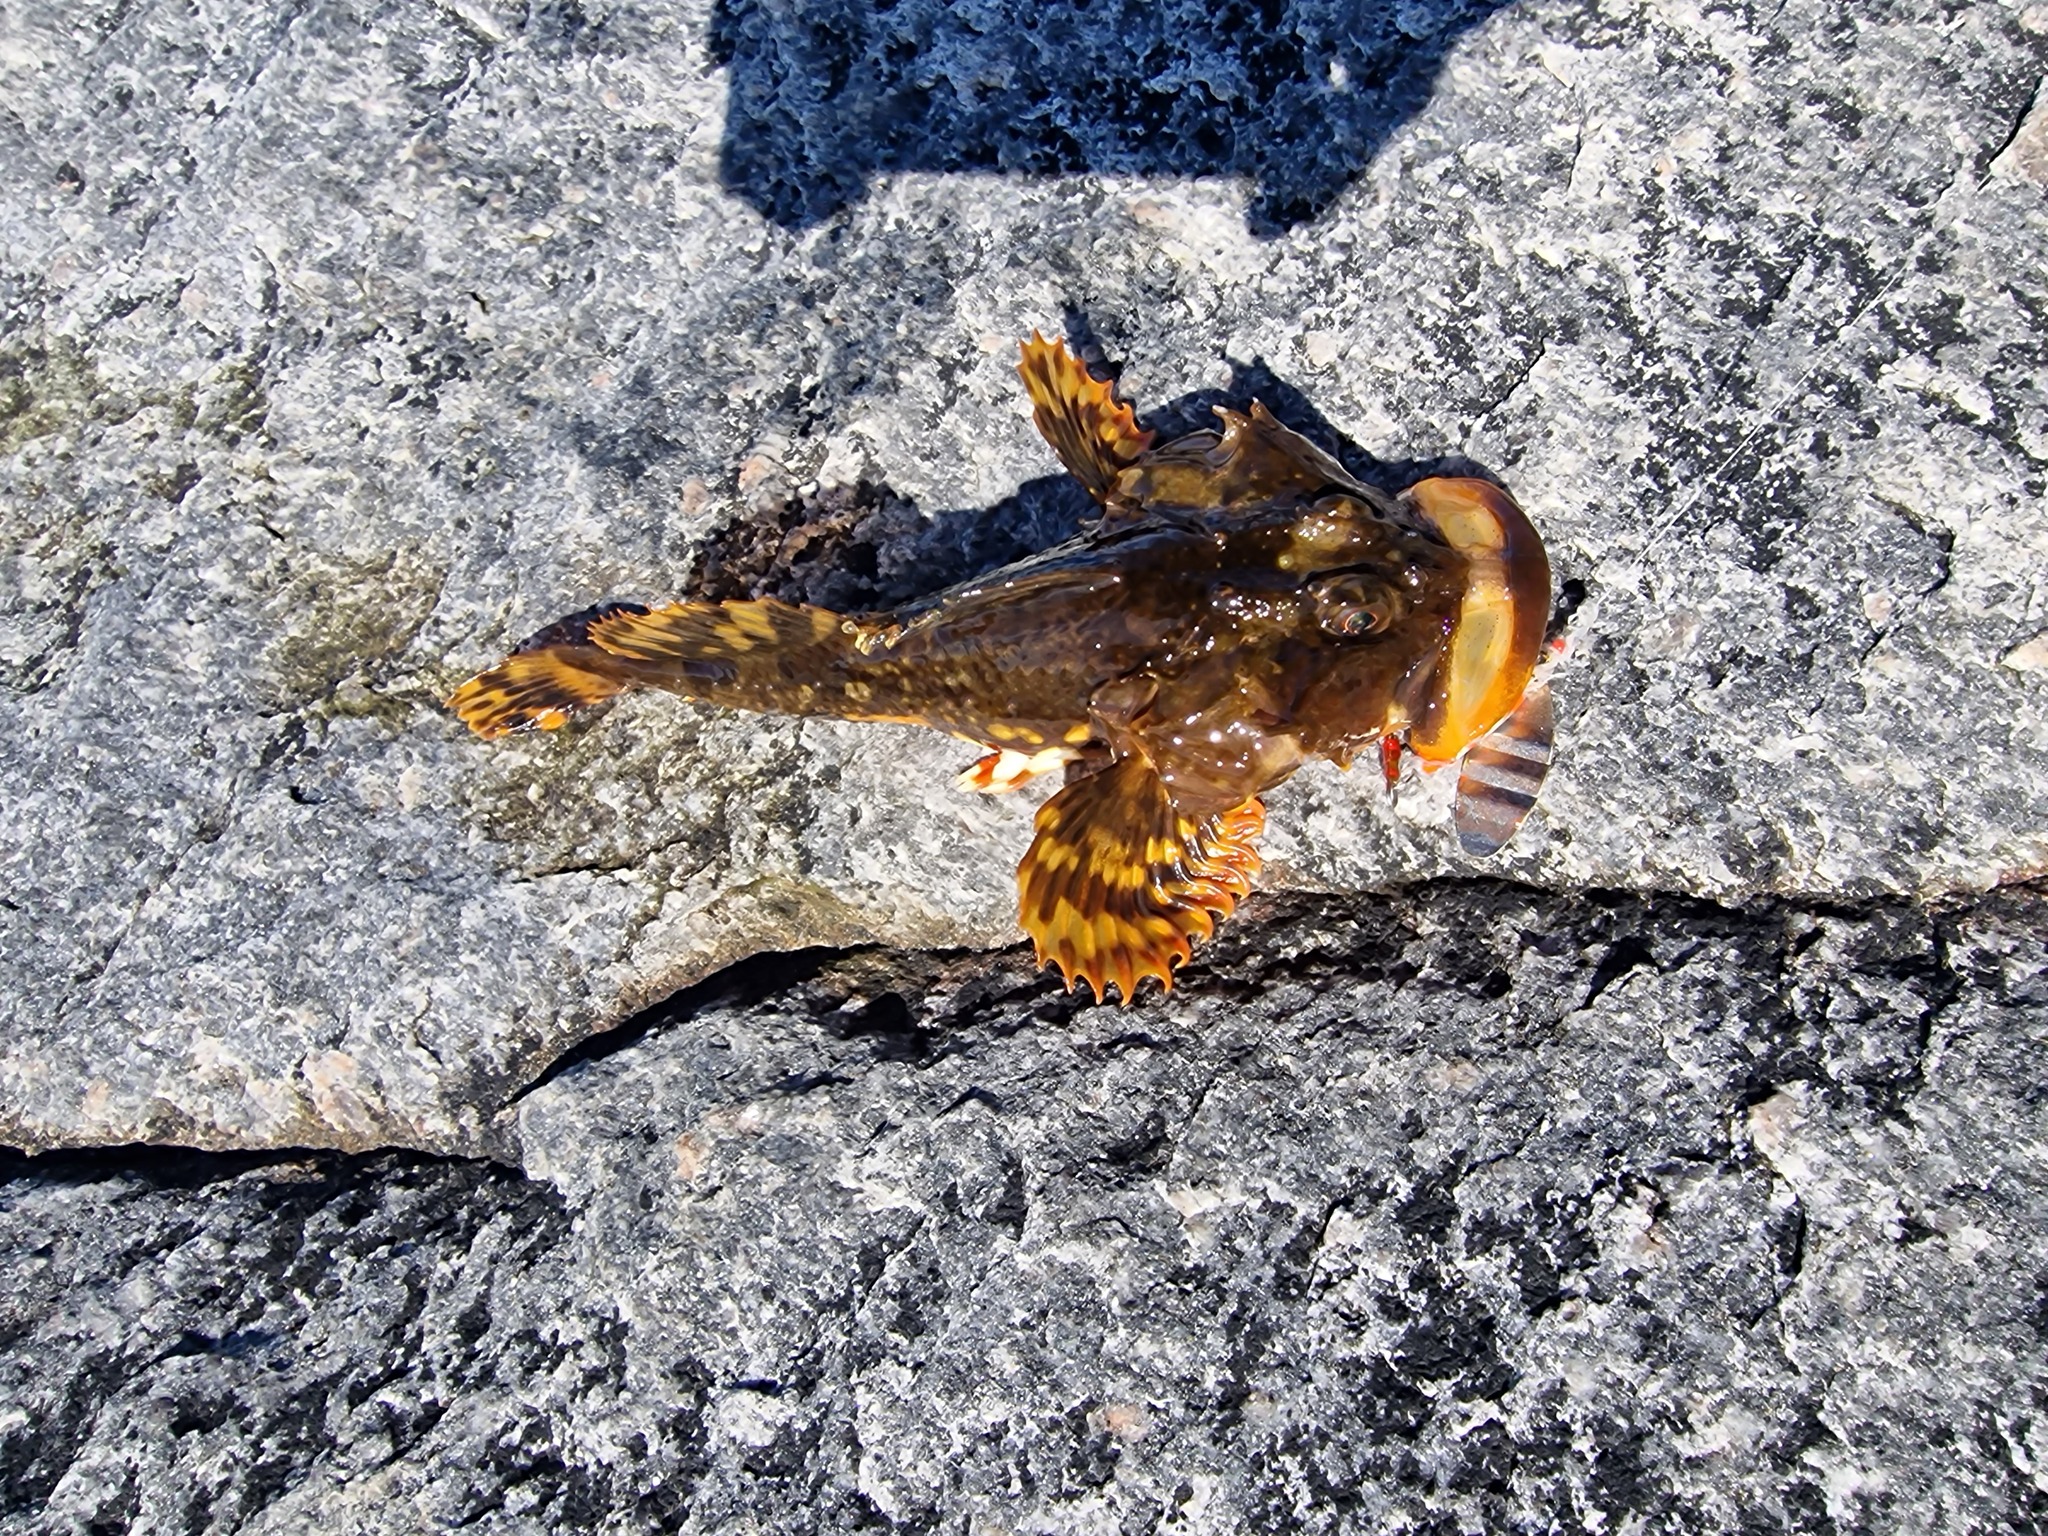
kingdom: Animalia
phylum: Chordata
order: Scorpaeniformes
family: Cottidae
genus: Myoxocephalus
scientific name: Myoxocephalus scorpius
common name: Shorthorn sculpin
